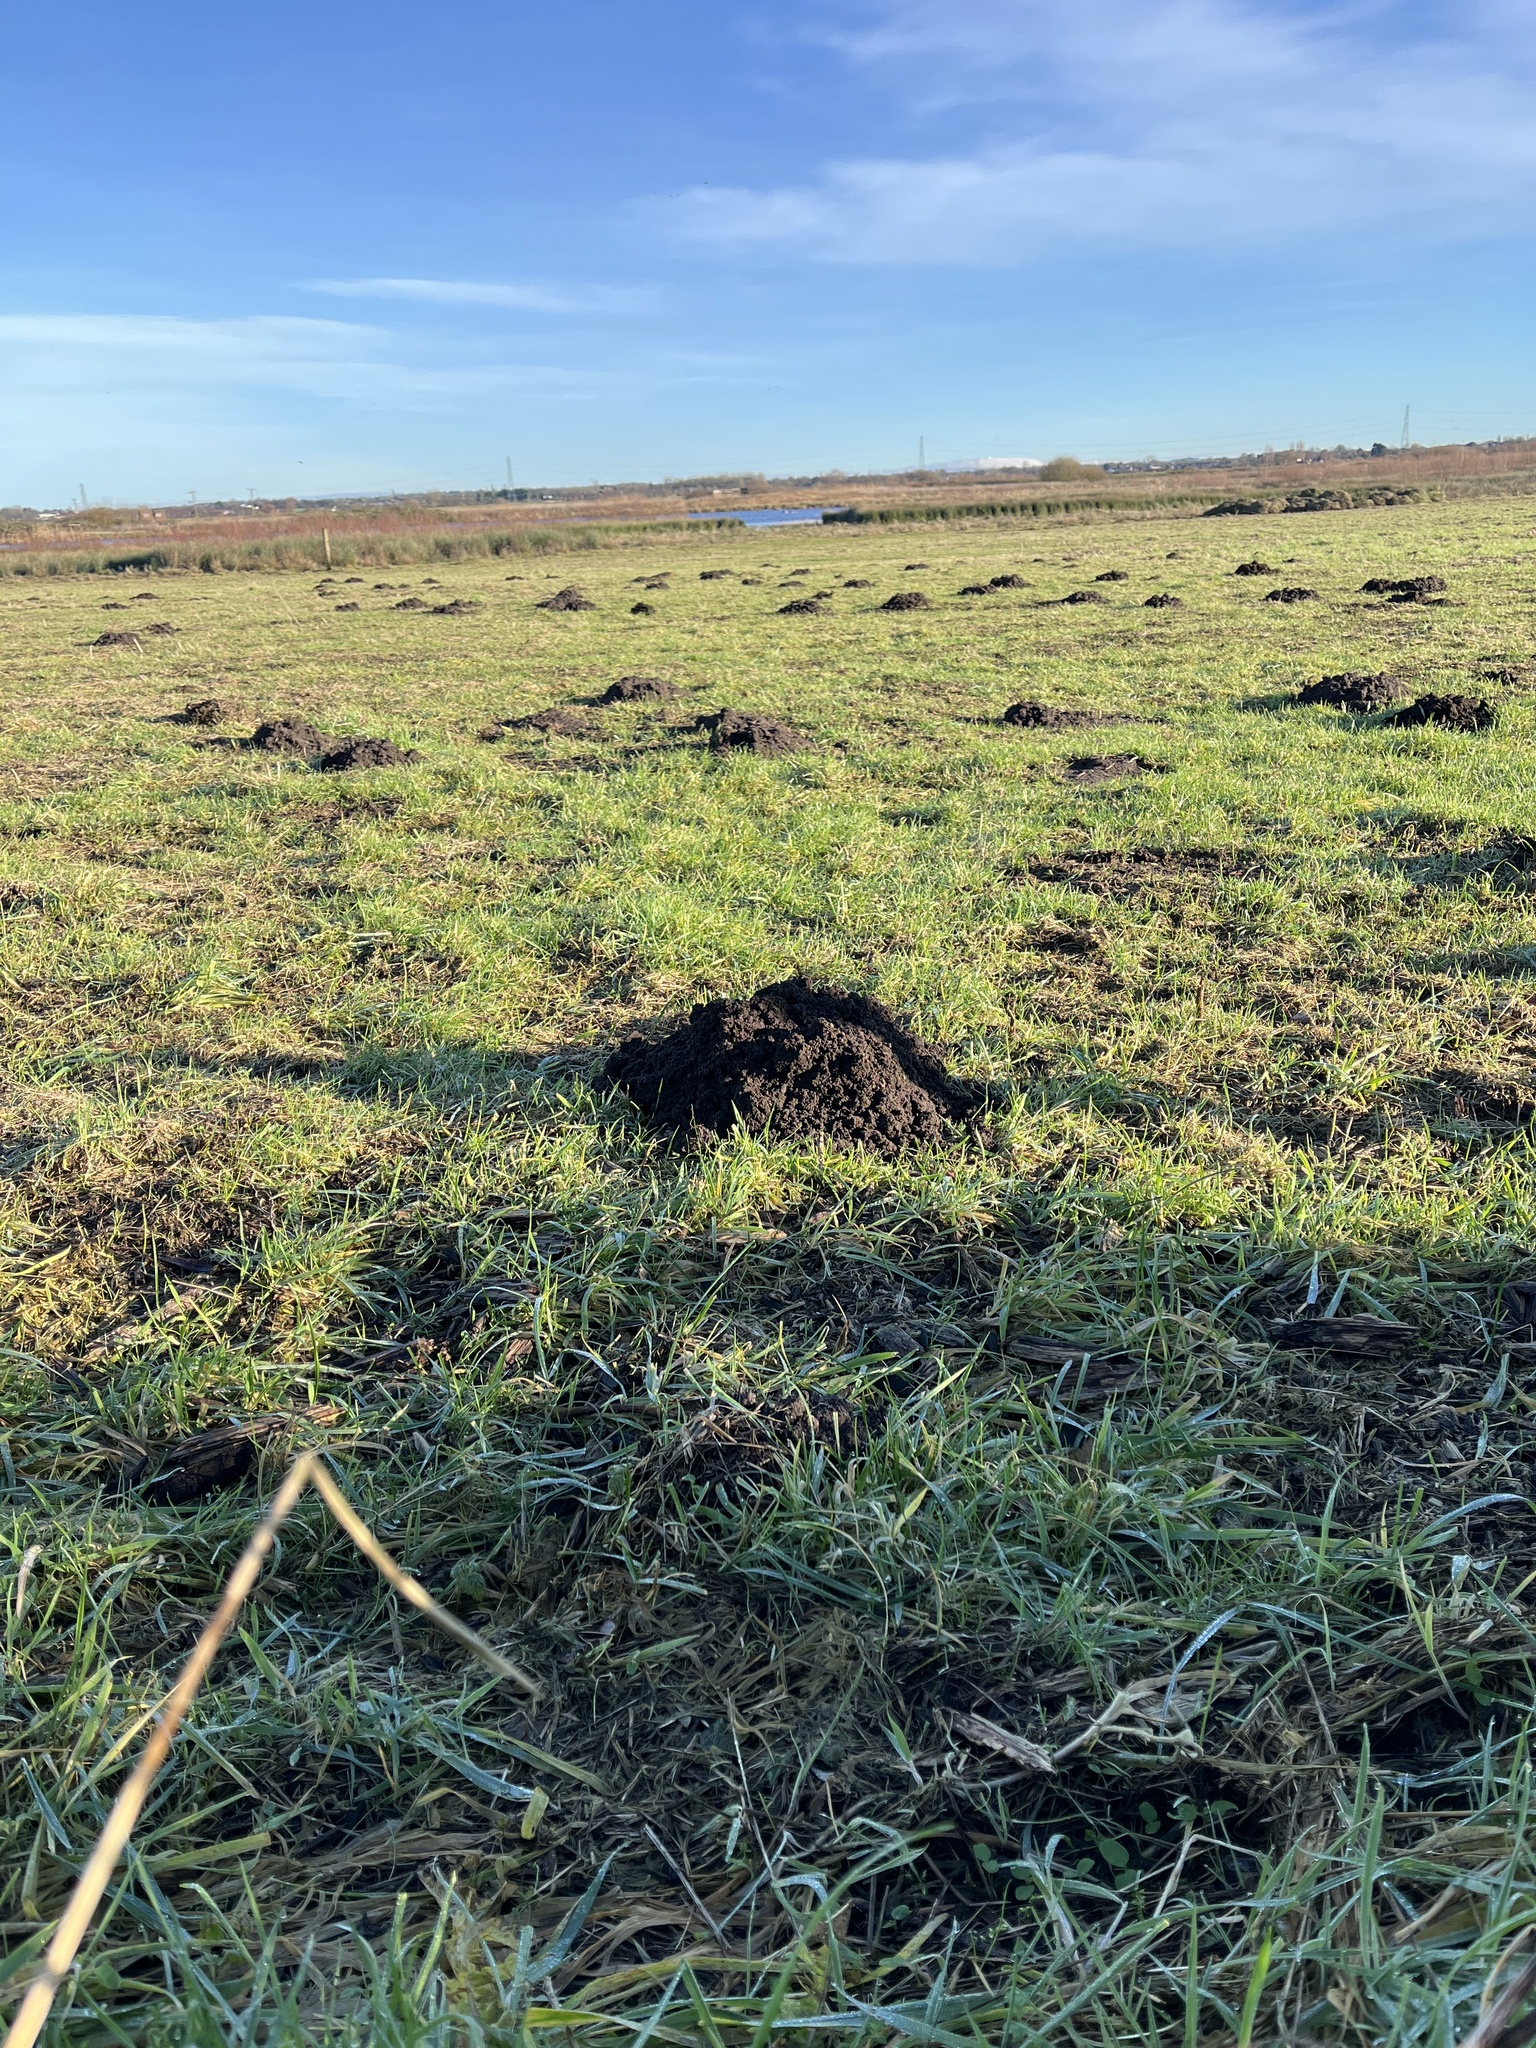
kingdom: Animalia
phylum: Chordata
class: Mammalia
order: Soricomorpha
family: Talpidae
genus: Talpa
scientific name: Talpa europaea
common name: European mole
